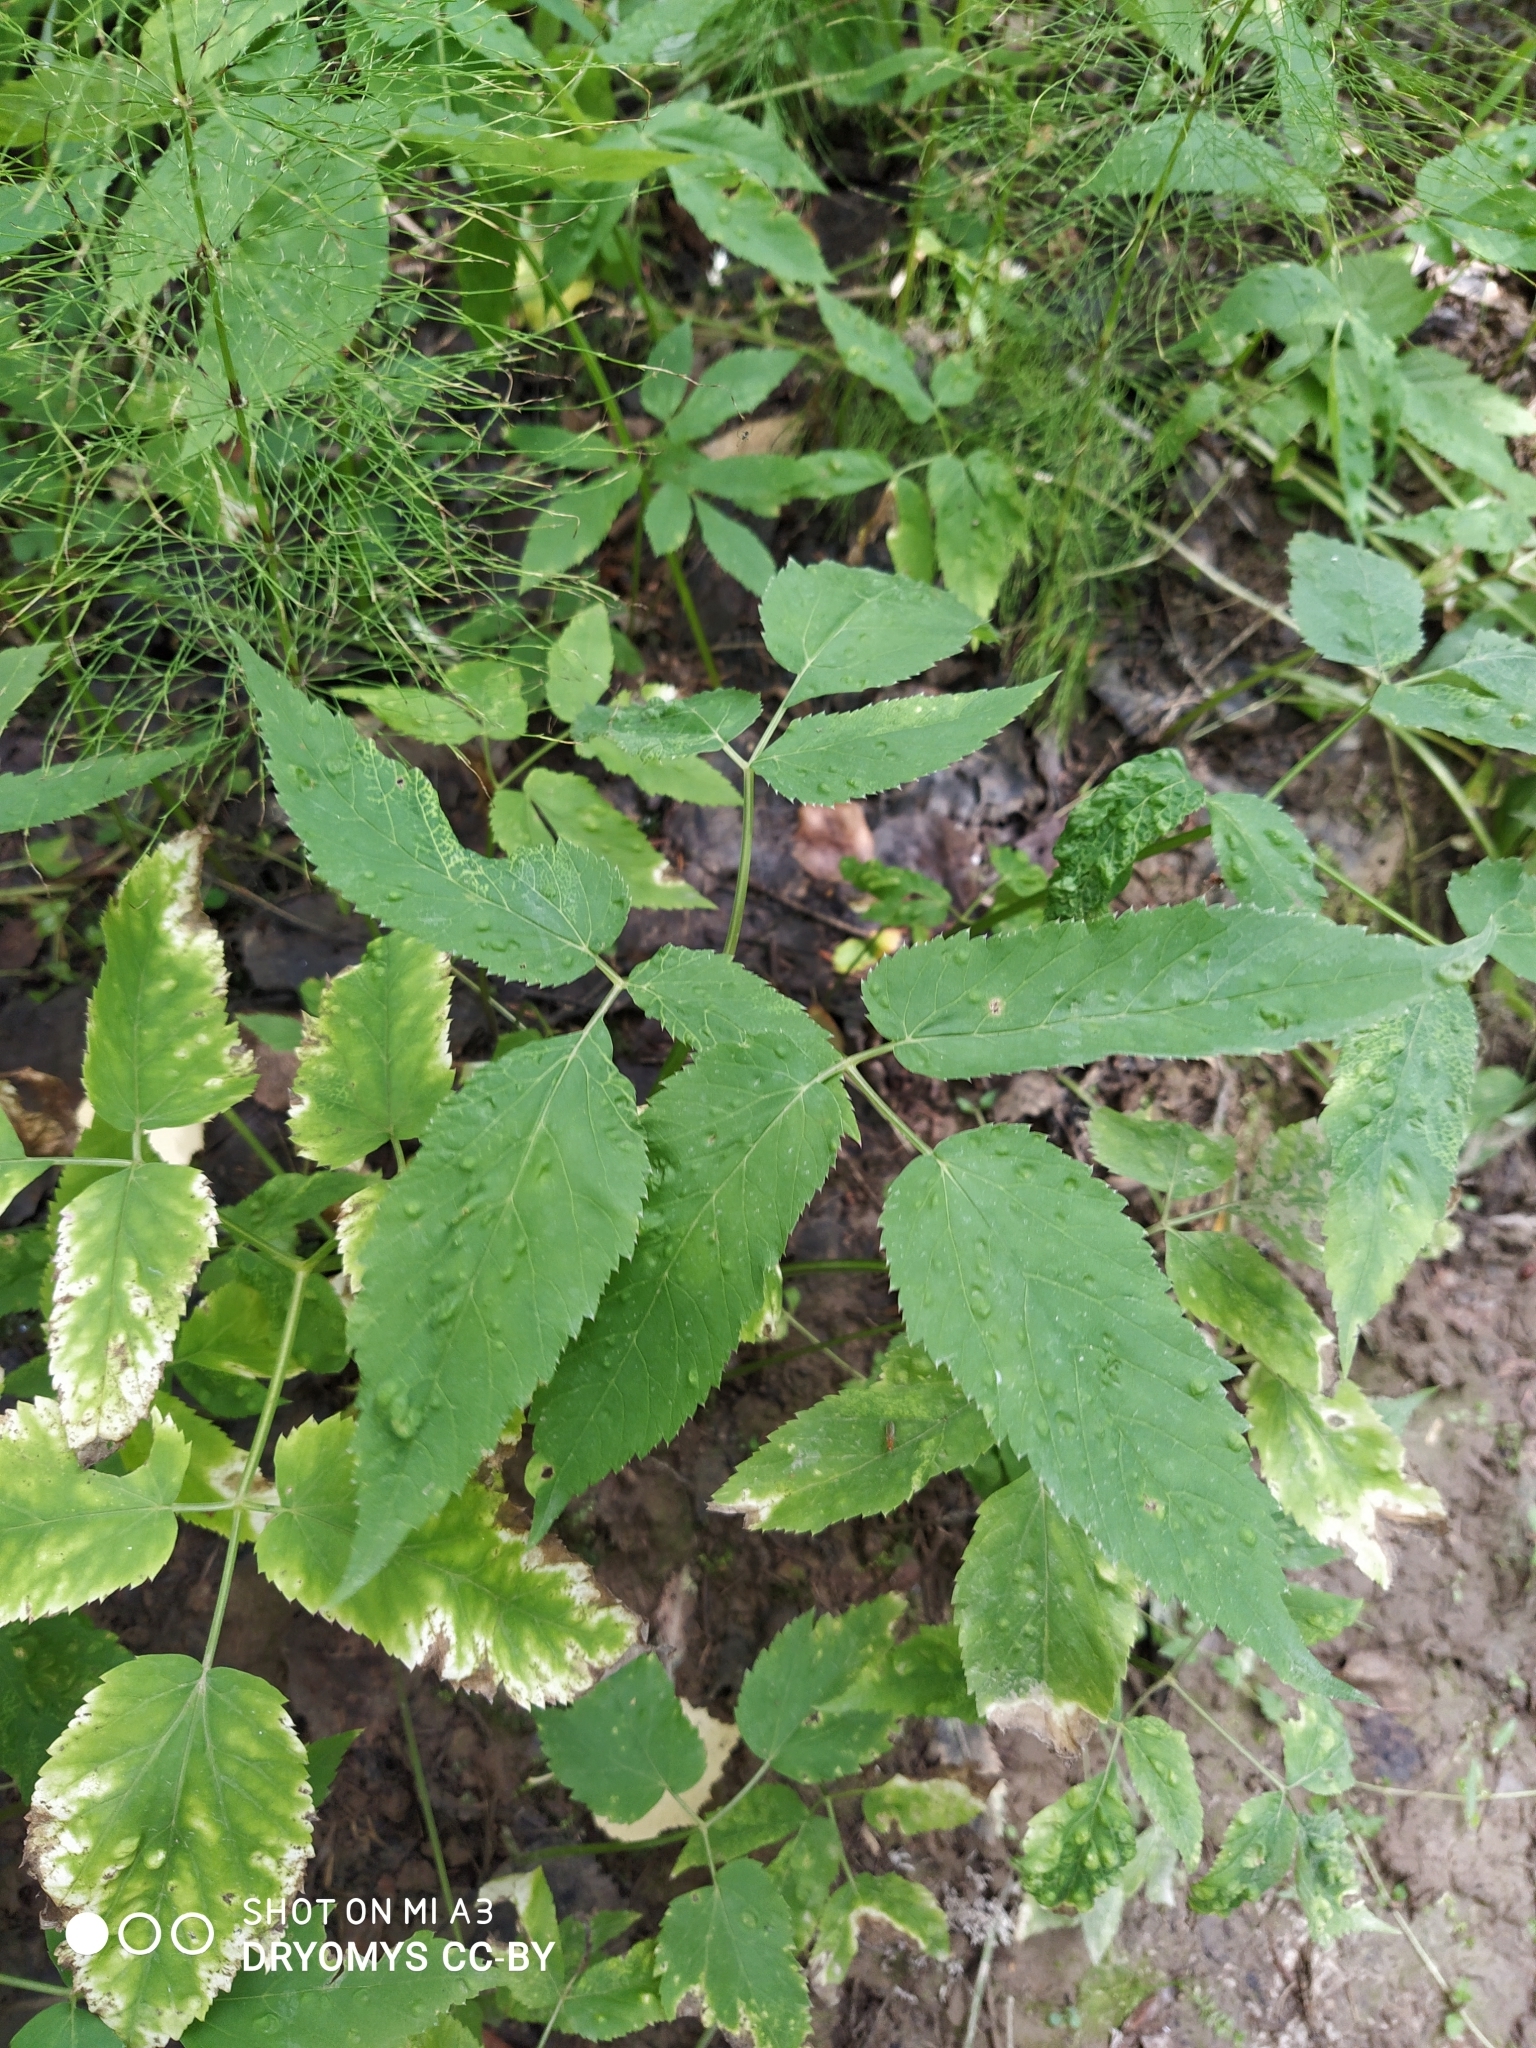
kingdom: Plantae
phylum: Tracheophyta
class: Magnoliopsida
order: Apiales
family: Apiaceae
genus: Aegopodium
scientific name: Aegopodium podagraria
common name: Ground-elder
